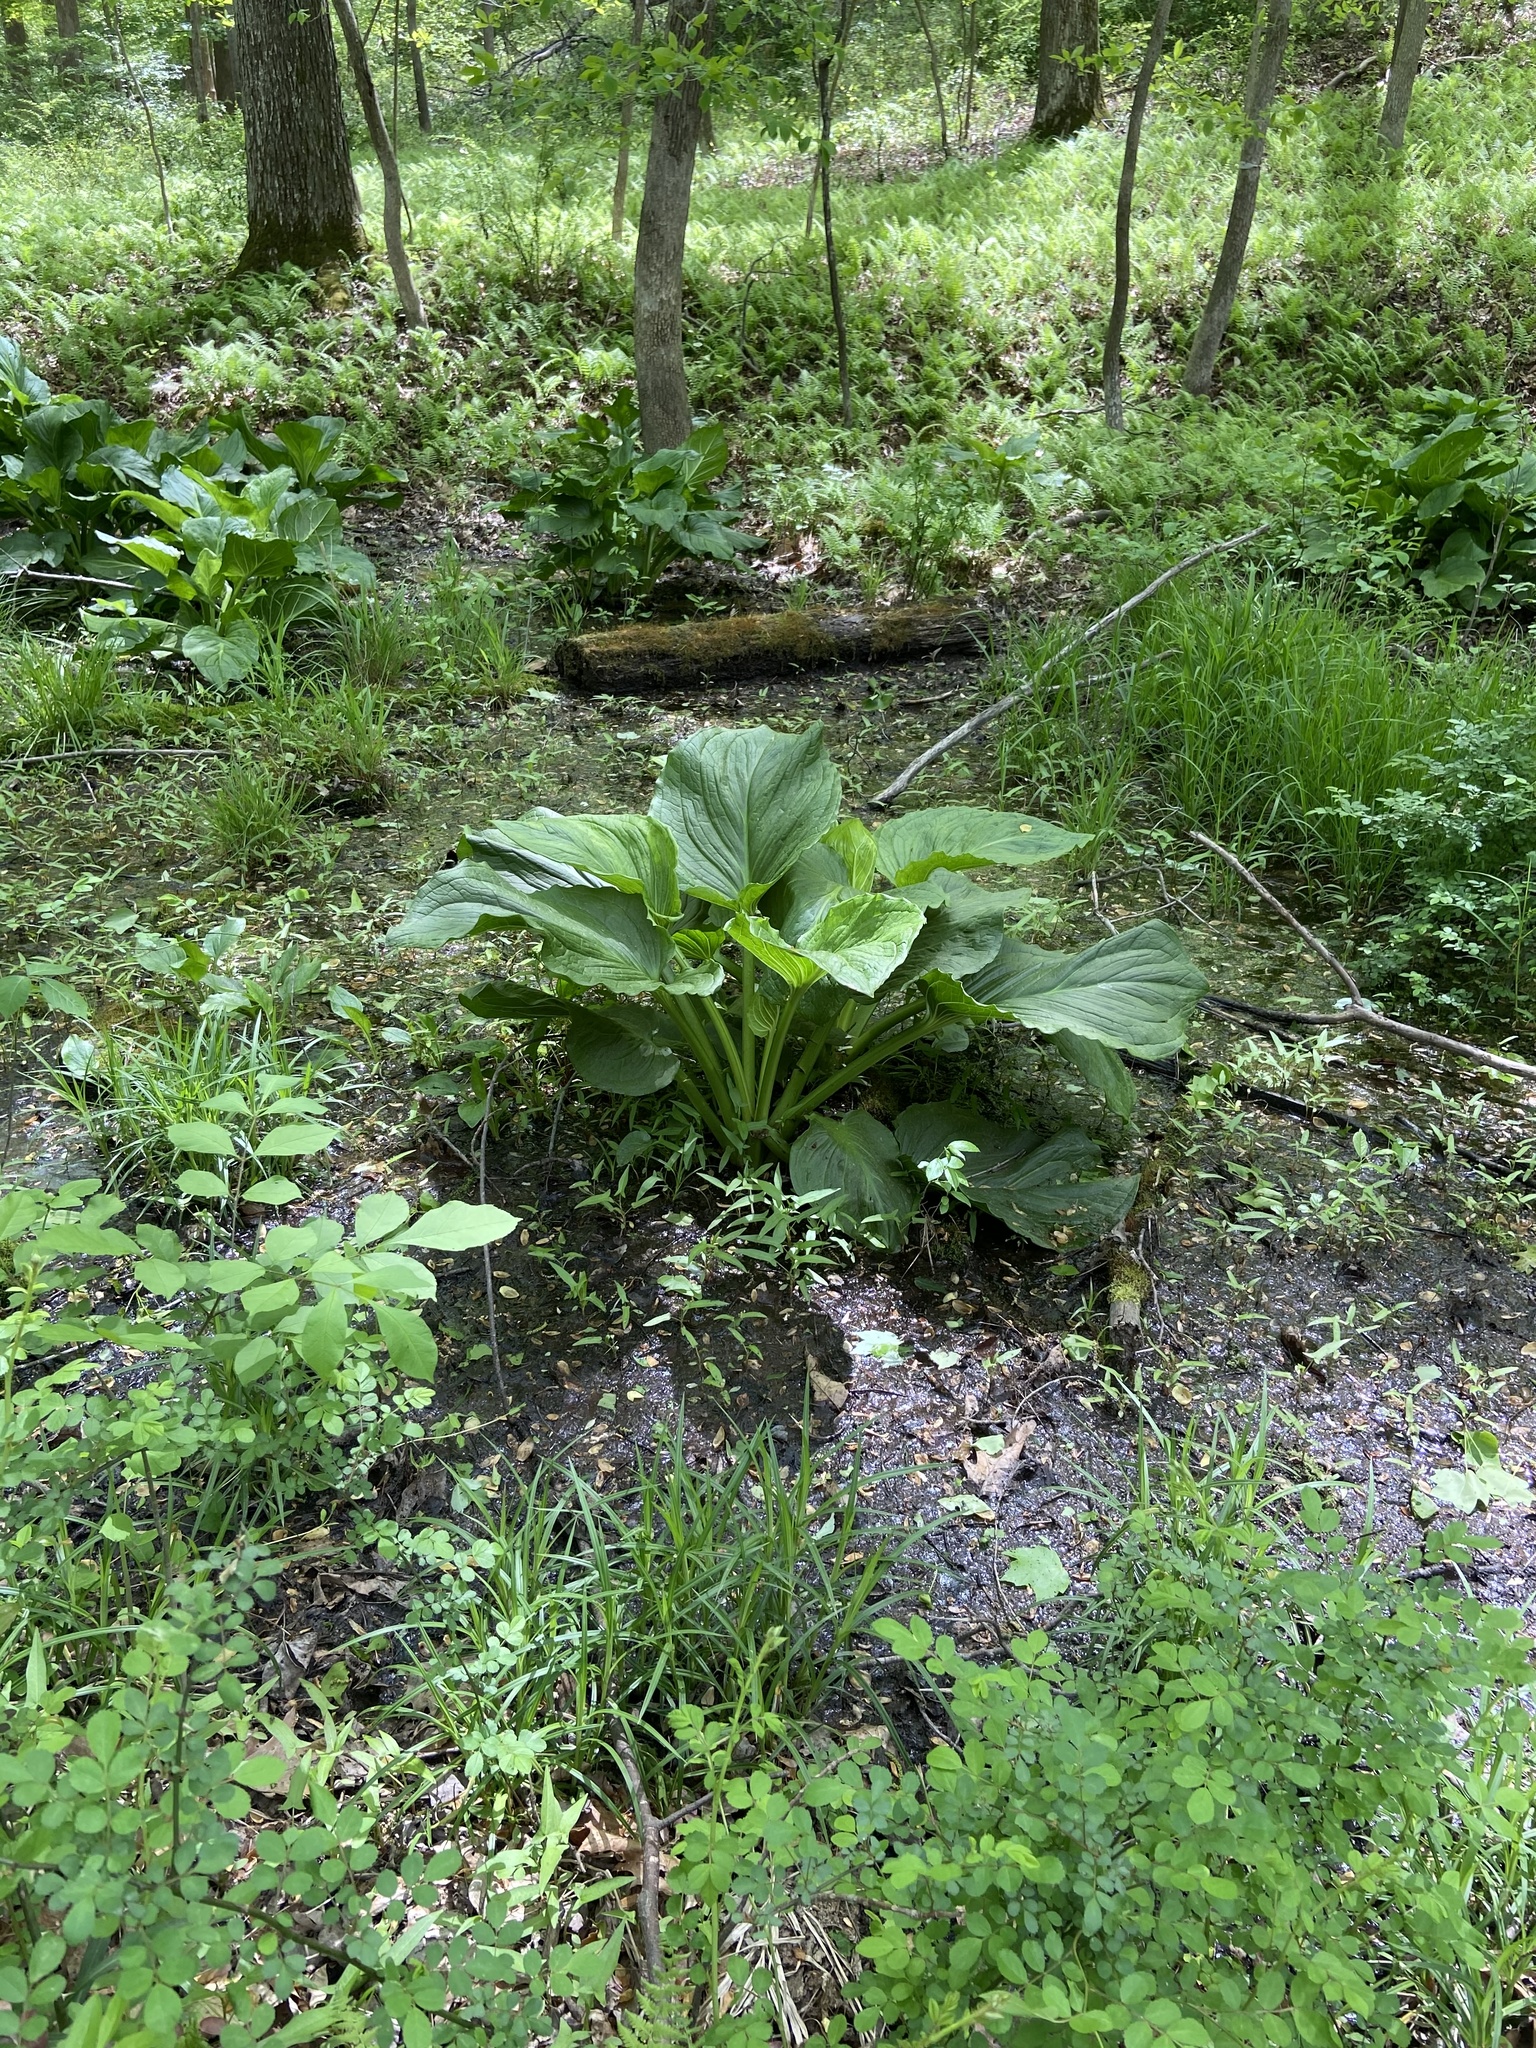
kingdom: Plantae
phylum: Tracheophyta
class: Liliopsida
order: Alismatales
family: Araceae
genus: Symplocarpus
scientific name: Symplocarpus foetidus
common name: Eastern skunk cabbage
